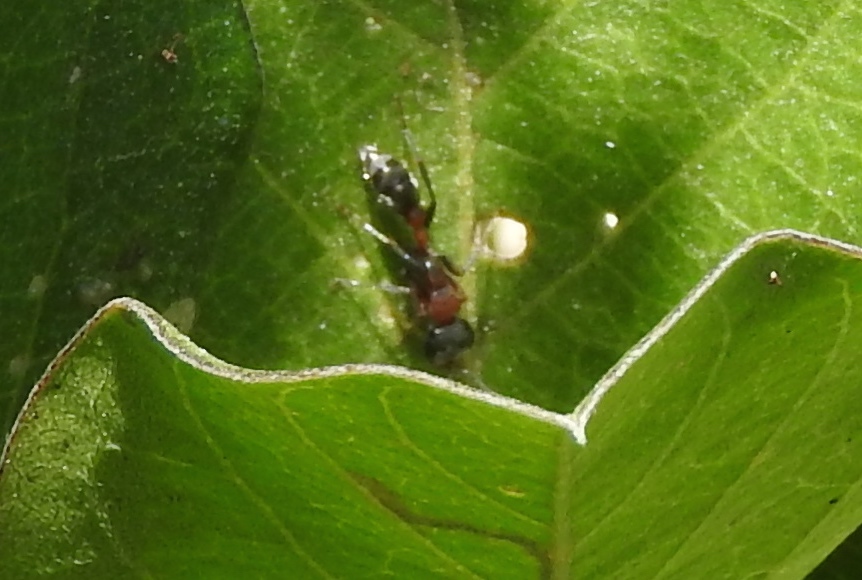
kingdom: Animalia
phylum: Arthropoda
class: Insecta
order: Hymenoptera
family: Formicidae
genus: Pseudomyrmex
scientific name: Pseudomyrmex gracilis
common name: Graceful twig ant
